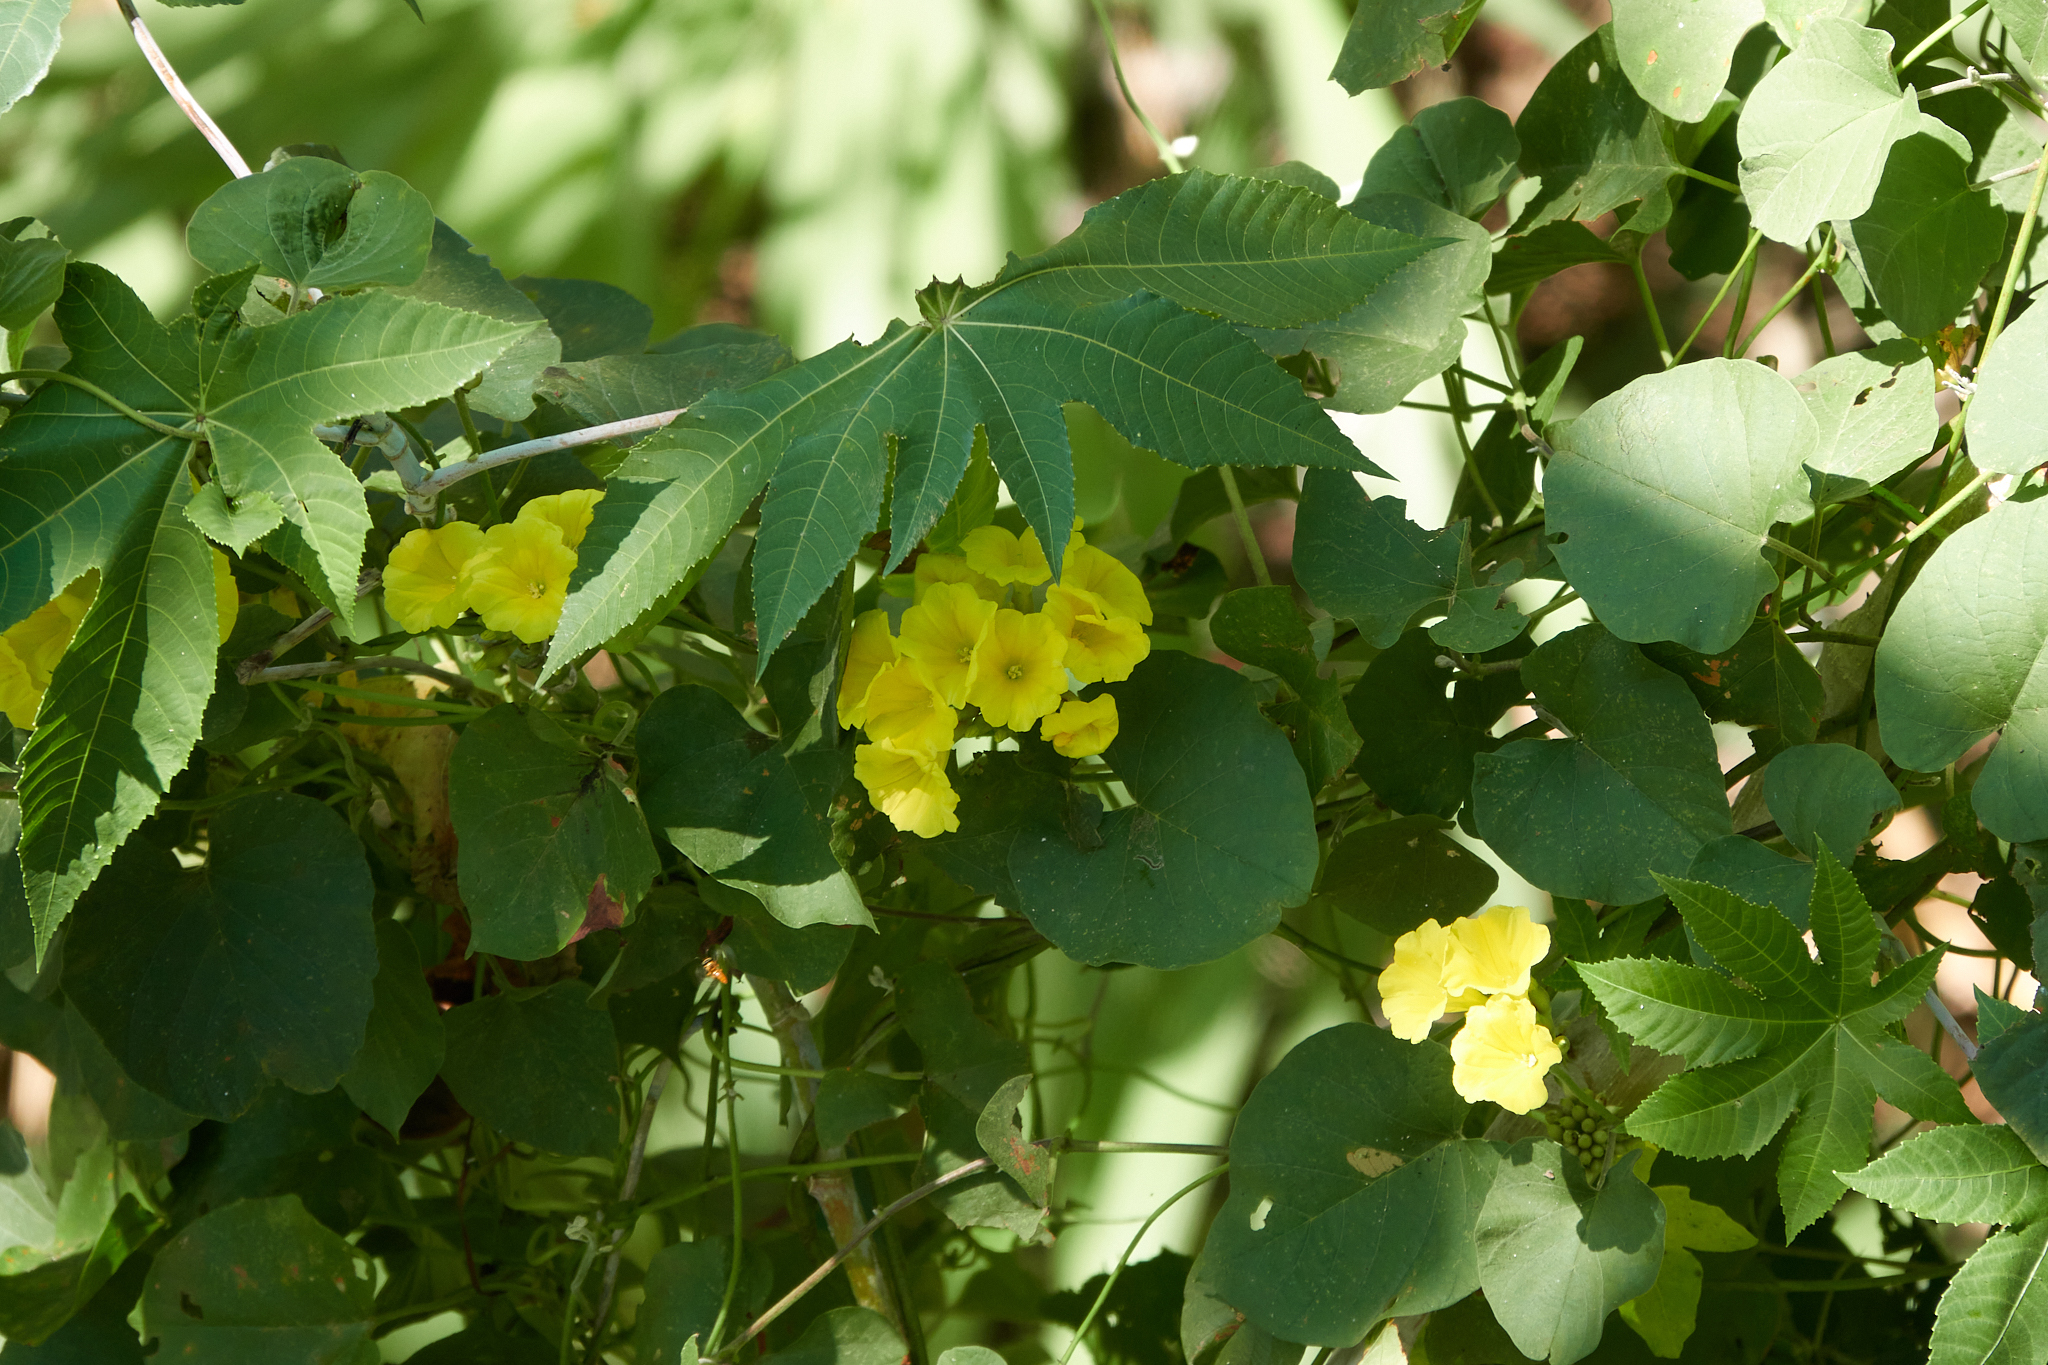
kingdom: Plantae
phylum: Tracheophyta
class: Magnoliopsida
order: Solanales
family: Convolvulaceae
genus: Camonea
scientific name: Camonea umbellata
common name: Hogvine
